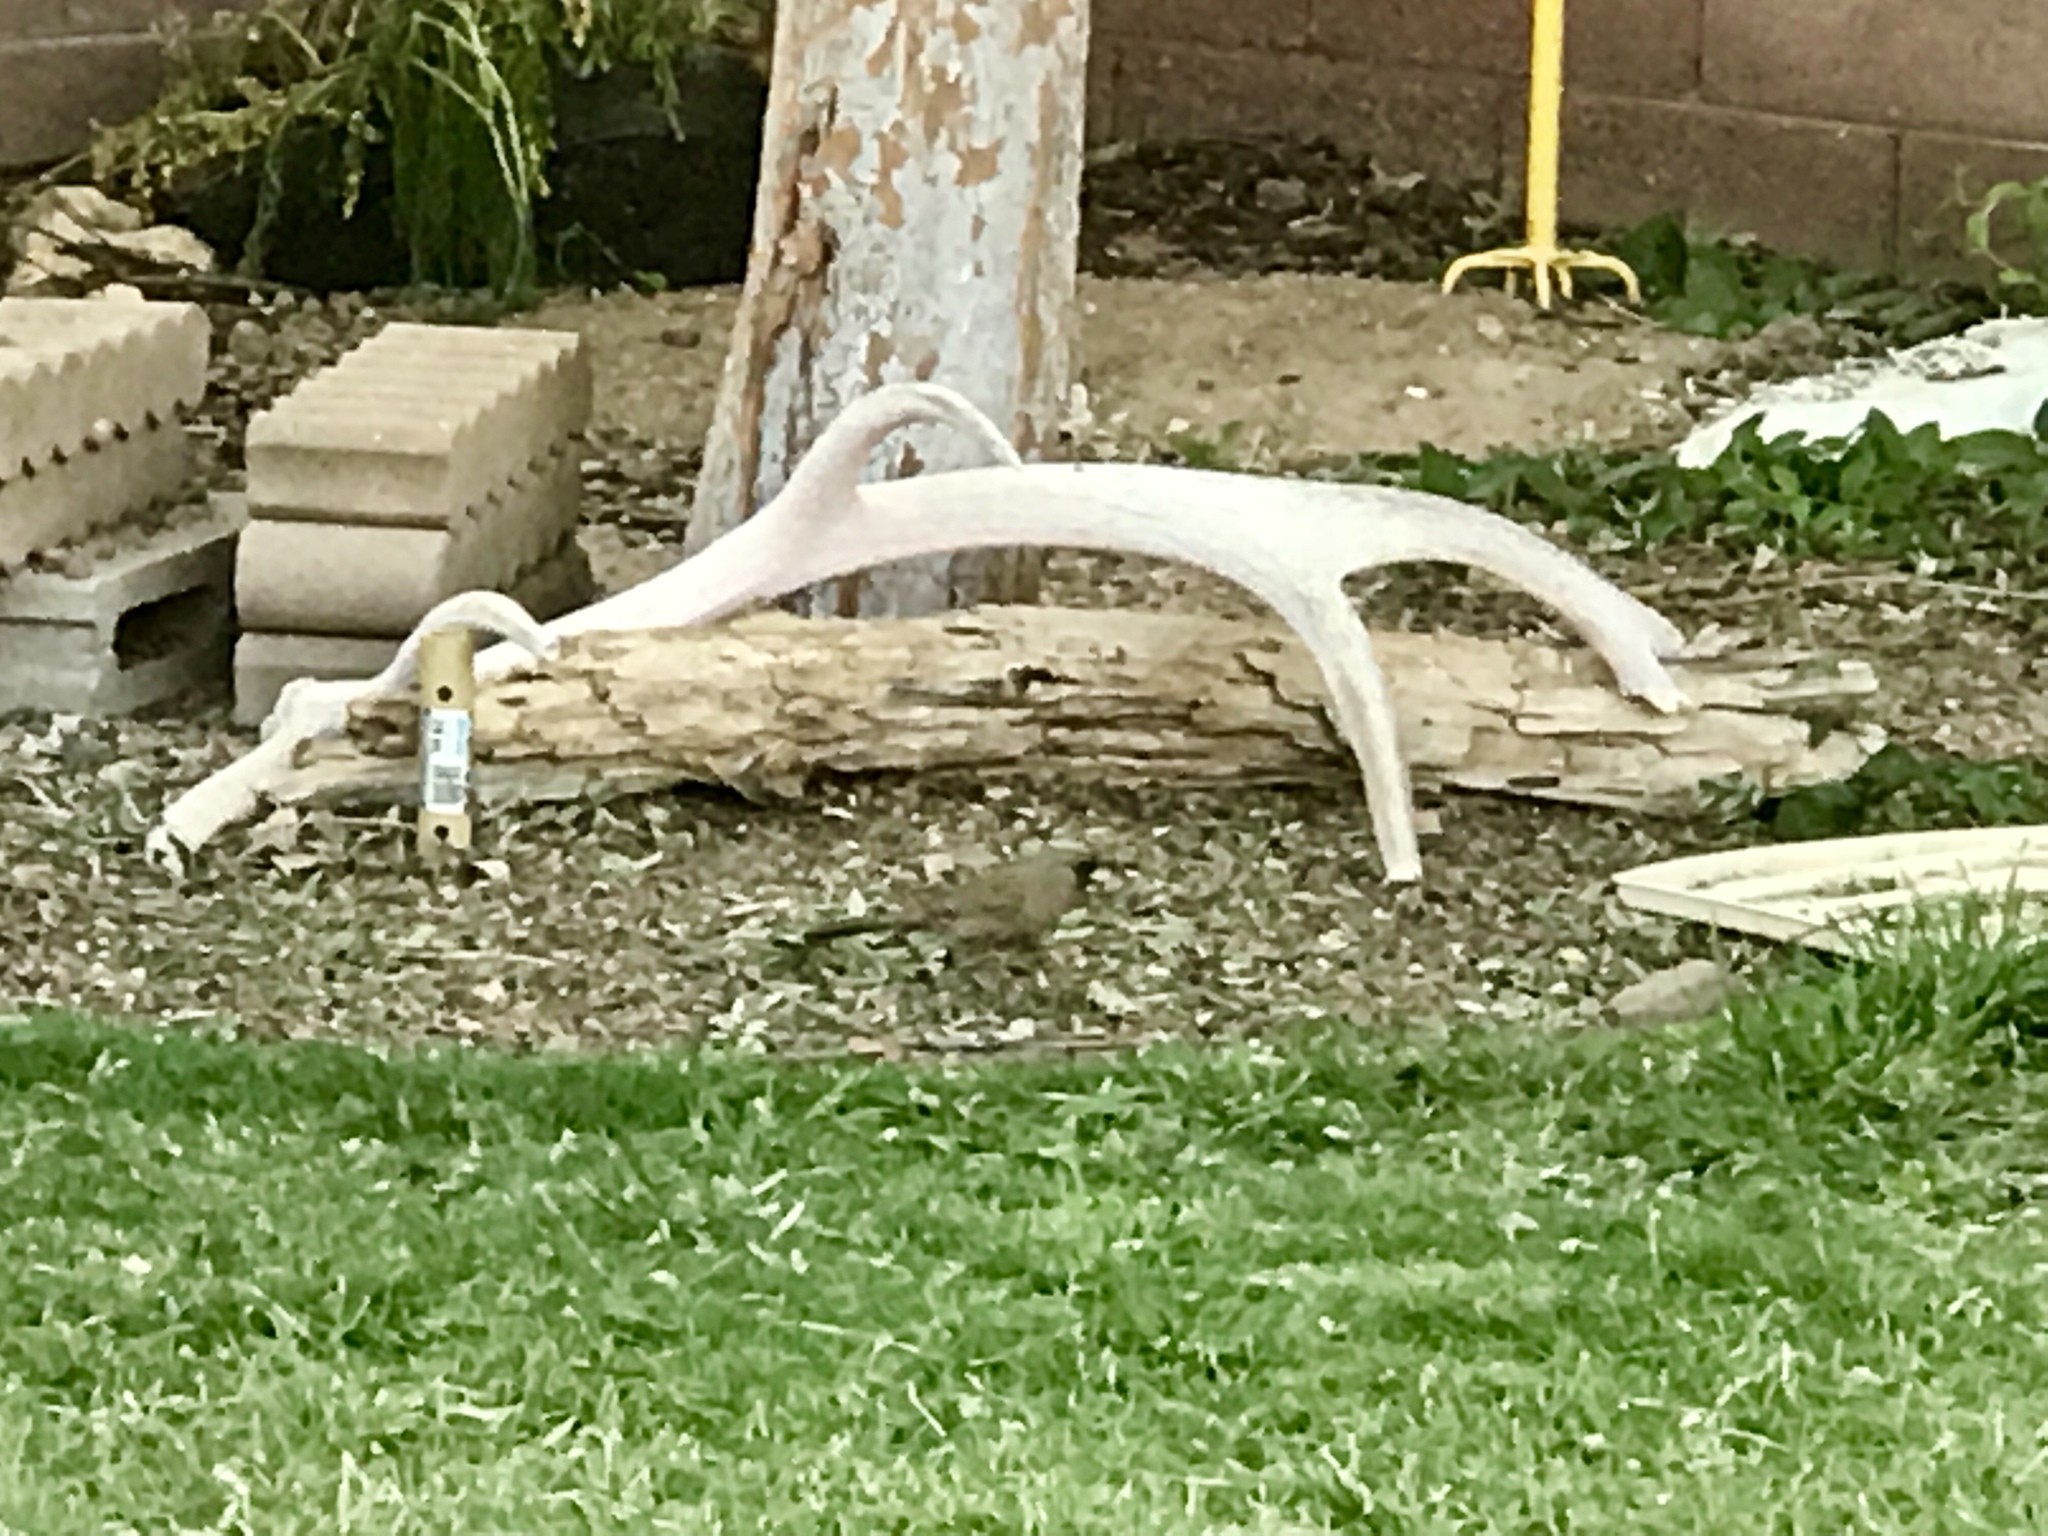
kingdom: Animalia
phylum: Chordata
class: Aves
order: Passeriformes
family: Passerellidae
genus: Melozone
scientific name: Melozone aberti
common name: Abert's towhee
